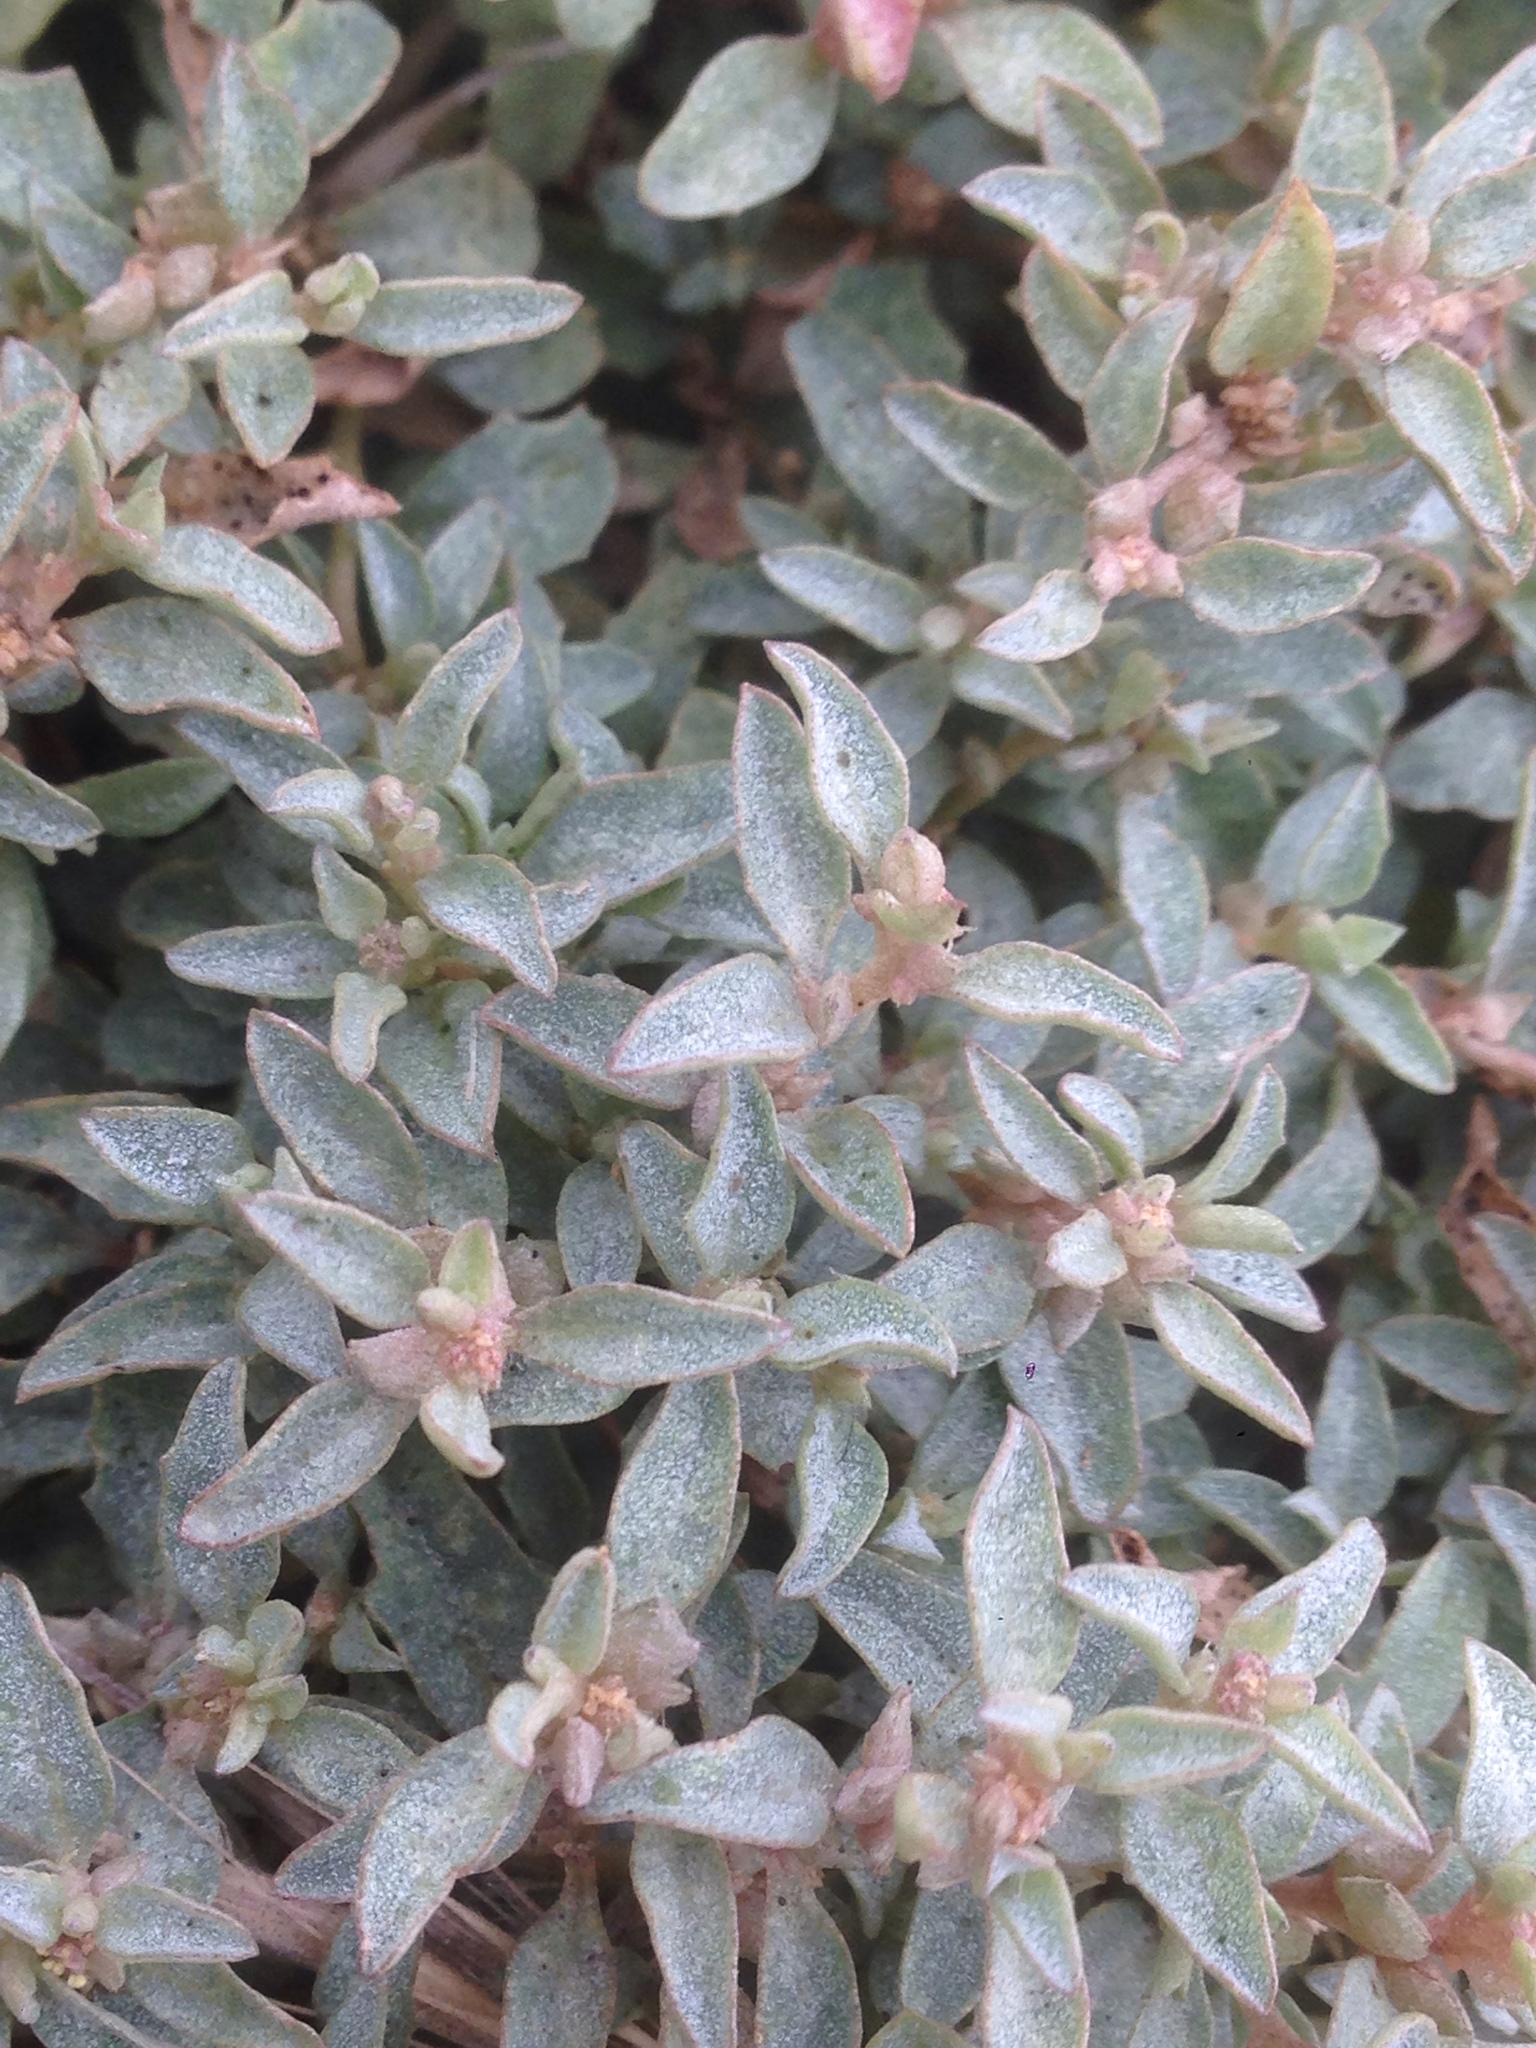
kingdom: Plantae
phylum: Tracheophyta
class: Magnoliopsida
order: Caryophyllales
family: Amaranthaceae
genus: Atriplex
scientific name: Atriplex semibaccata
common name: Australian saltbush
